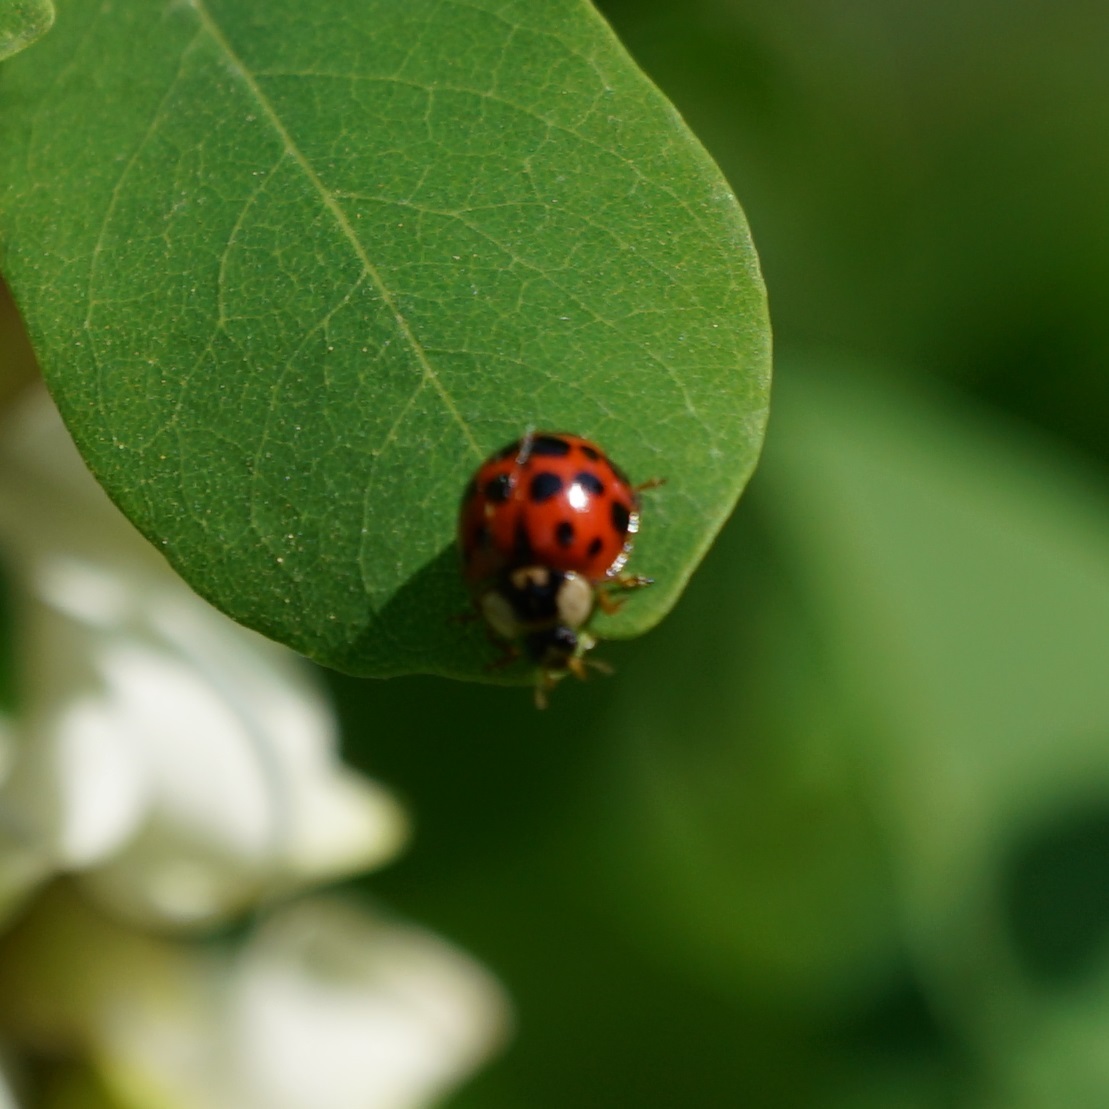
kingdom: Animalia
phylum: Arthropoda
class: Insecta
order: Coleoptera
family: Coccinellidae
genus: Harmonia
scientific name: Harmonia axyridis
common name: Harlequin ladybird
